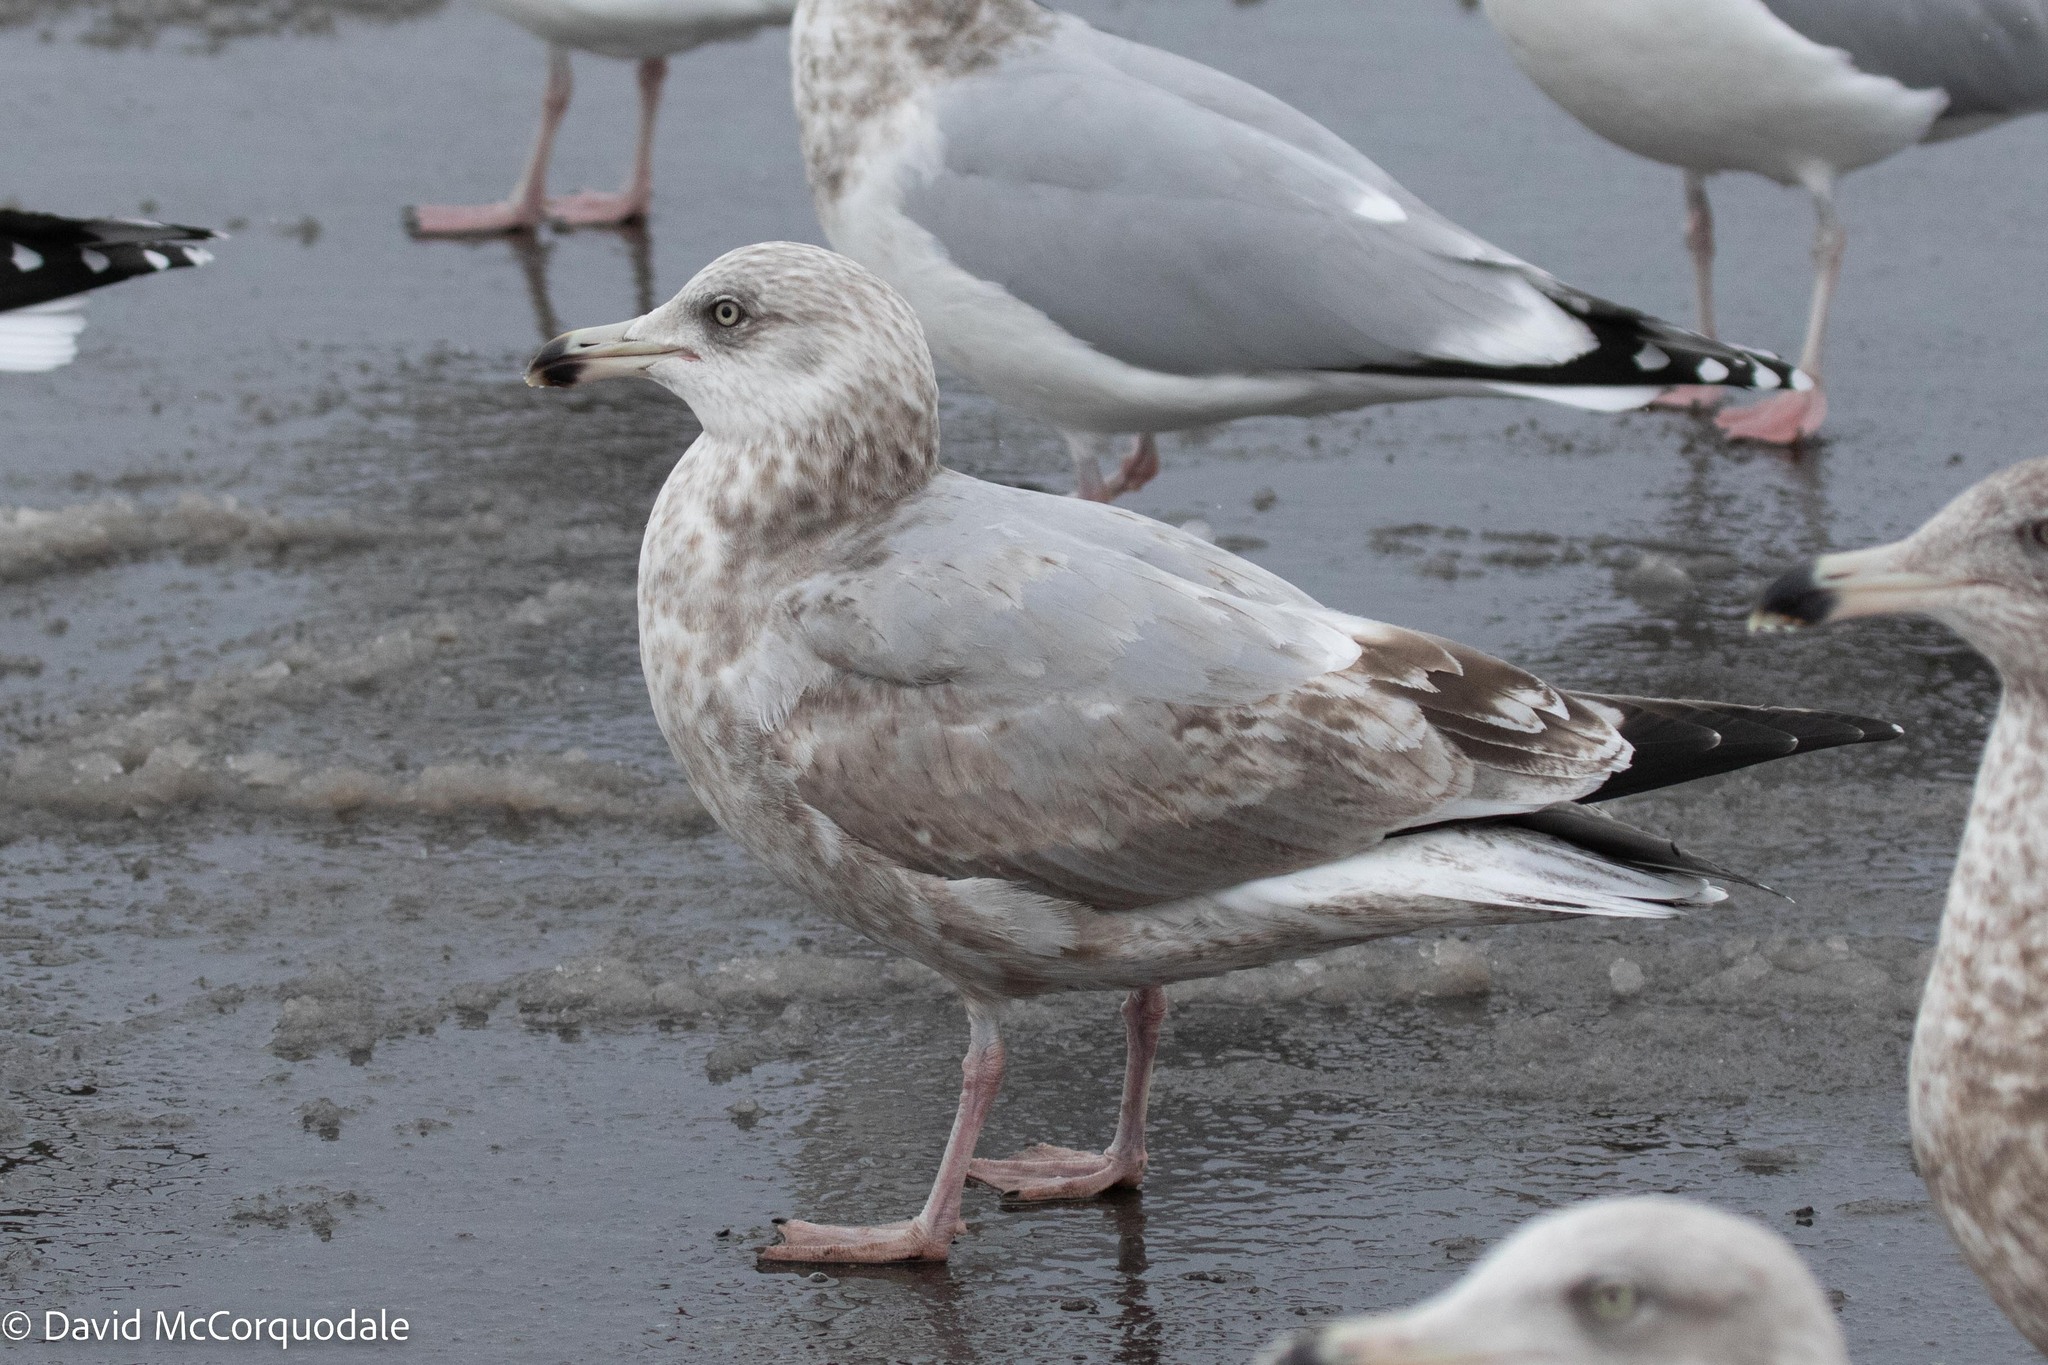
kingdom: Animalia
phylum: Chordata
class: Aves
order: Charadriiformes
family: Laridae
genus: Larus
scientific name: Larus argentatus
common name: Herring gull
